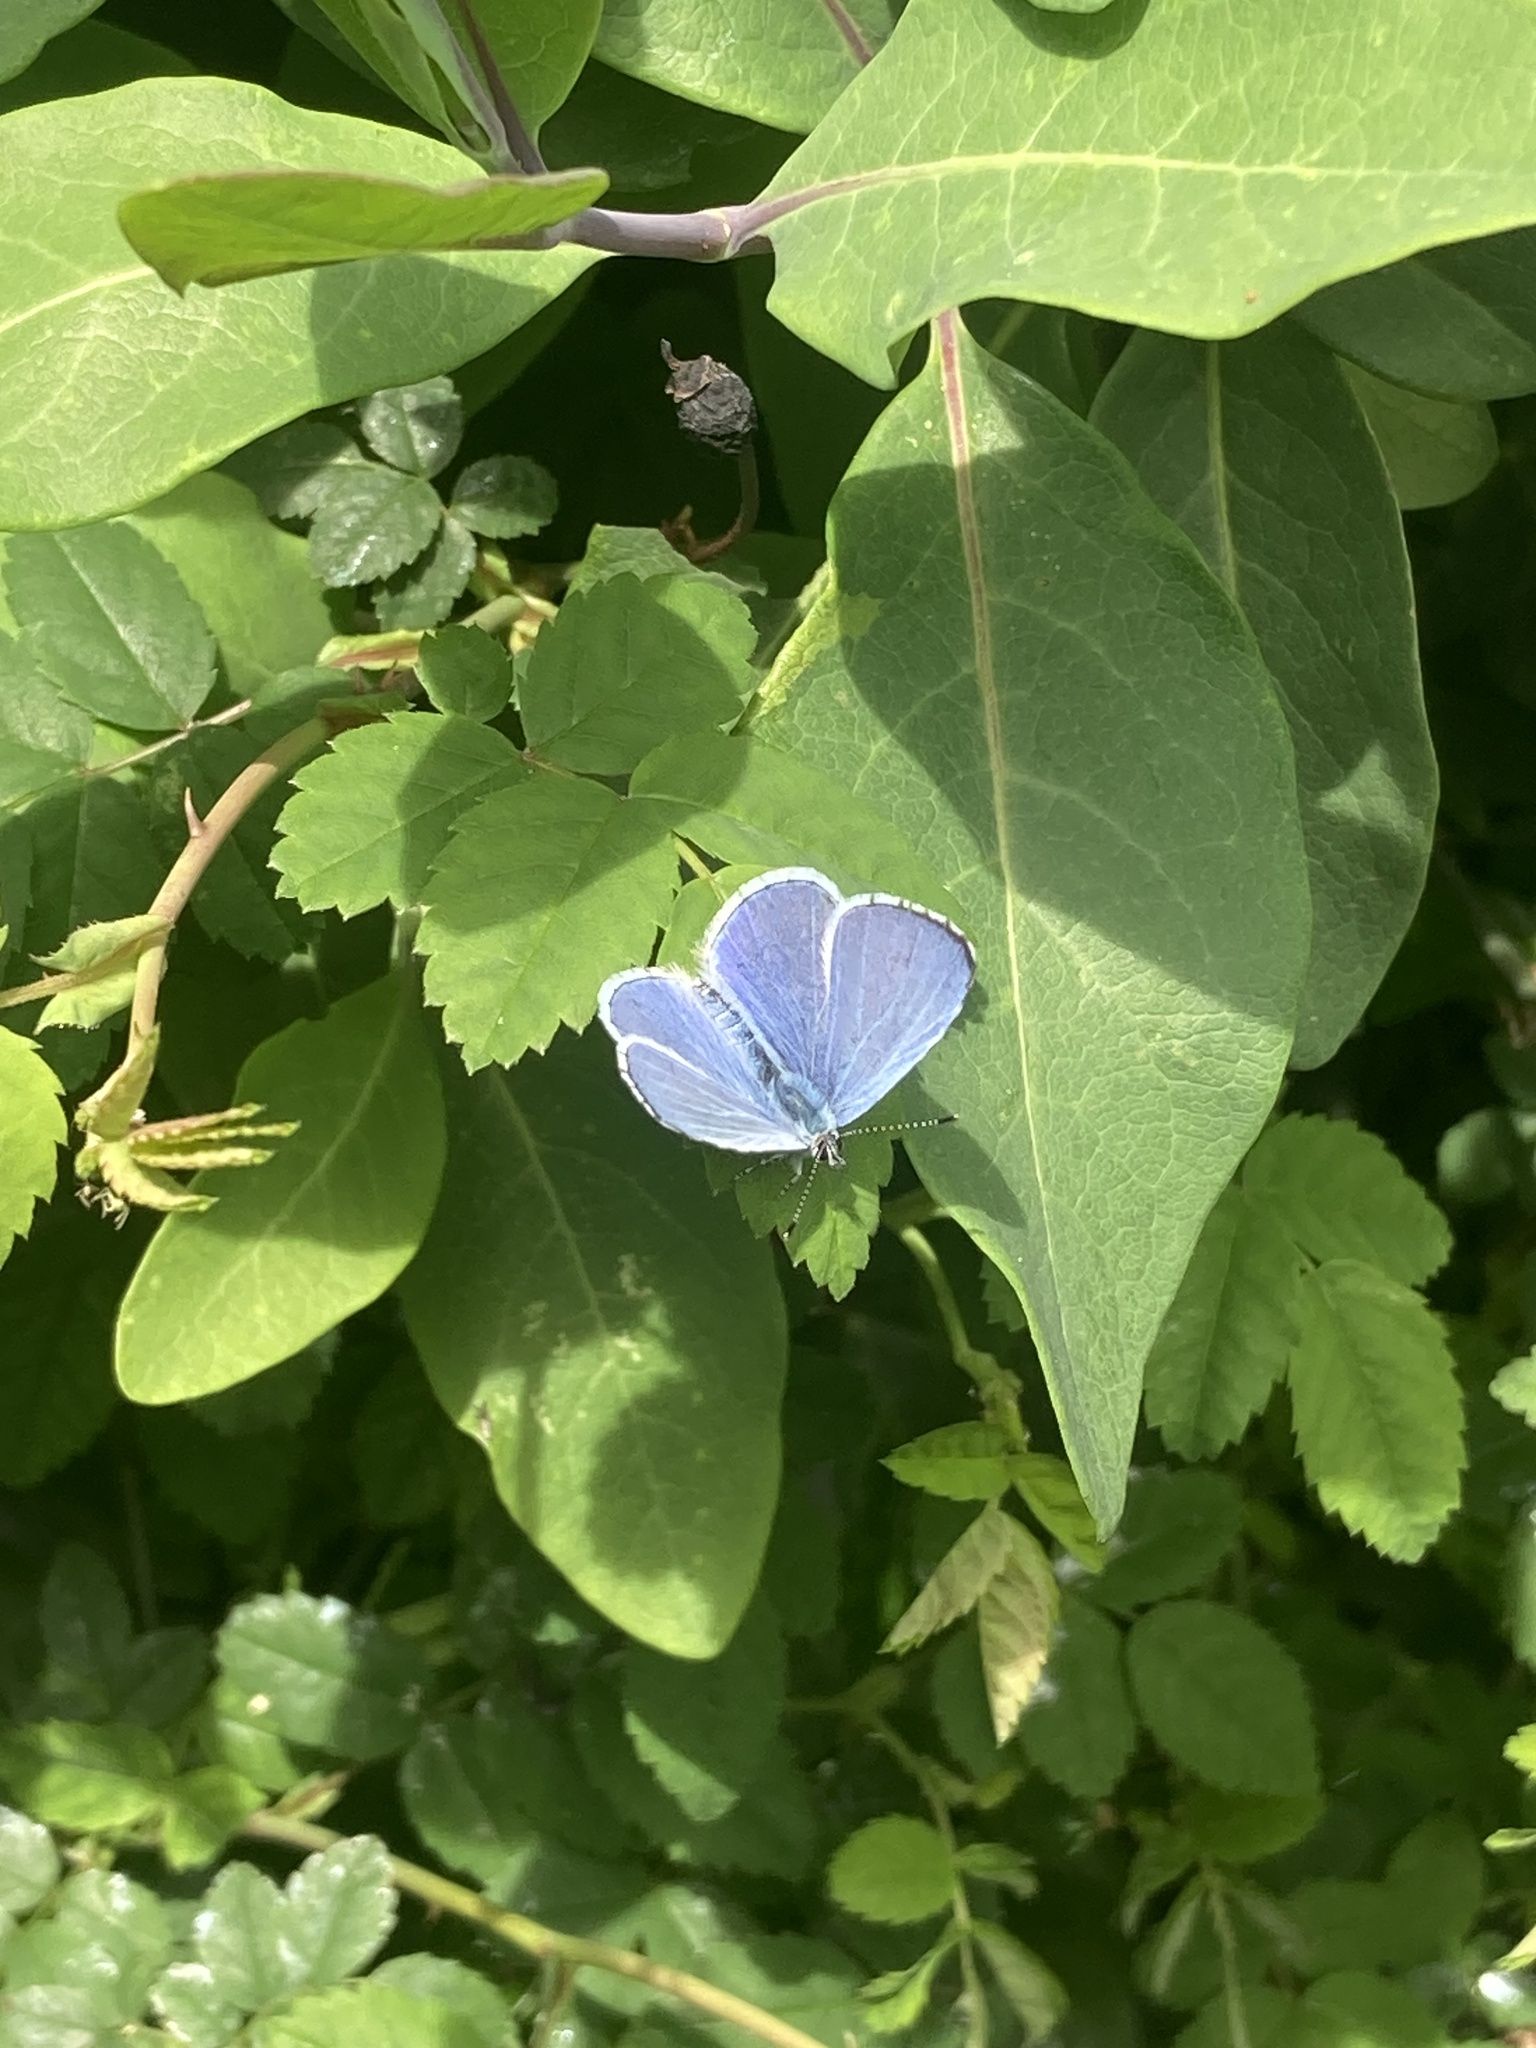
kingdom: Animalia
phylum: Arthropoda
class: Insecta
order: Lepidoptera
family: Lycaenidae
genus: Celastrina
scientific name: Celastrina argiolus
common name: Holly blue
